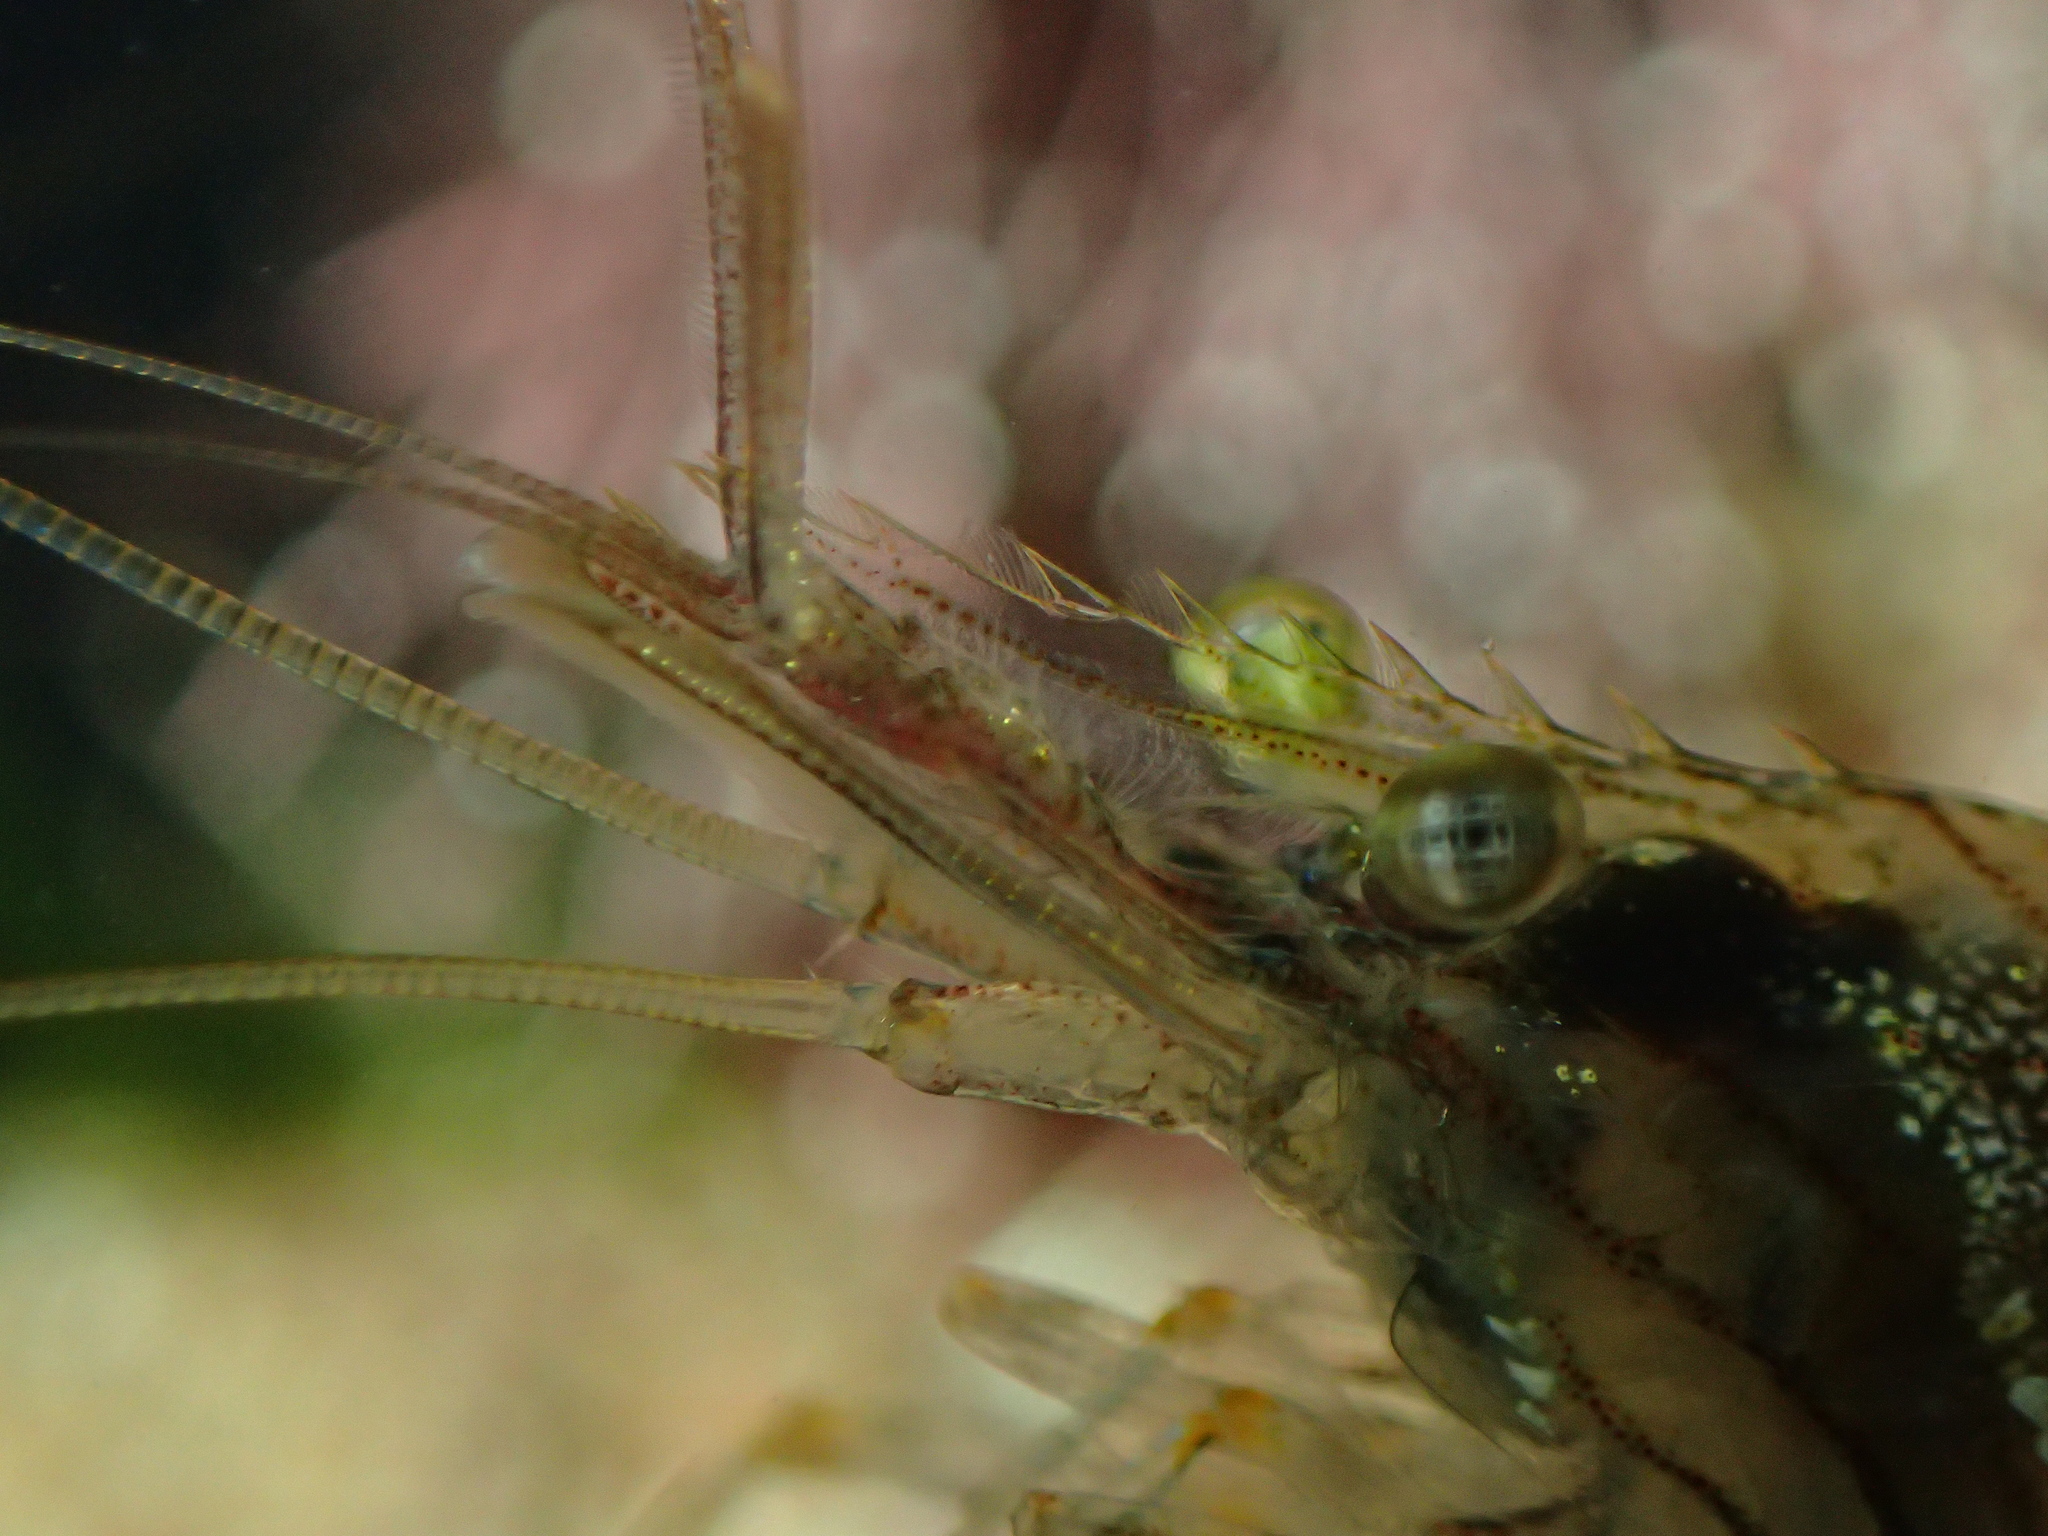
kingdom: Animalia
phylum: Arthropoda
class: Malacostraca
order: Decapoda
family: Palaemonidae
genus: Palaemon
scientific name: Palaemon elegans
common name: Grass prawm
